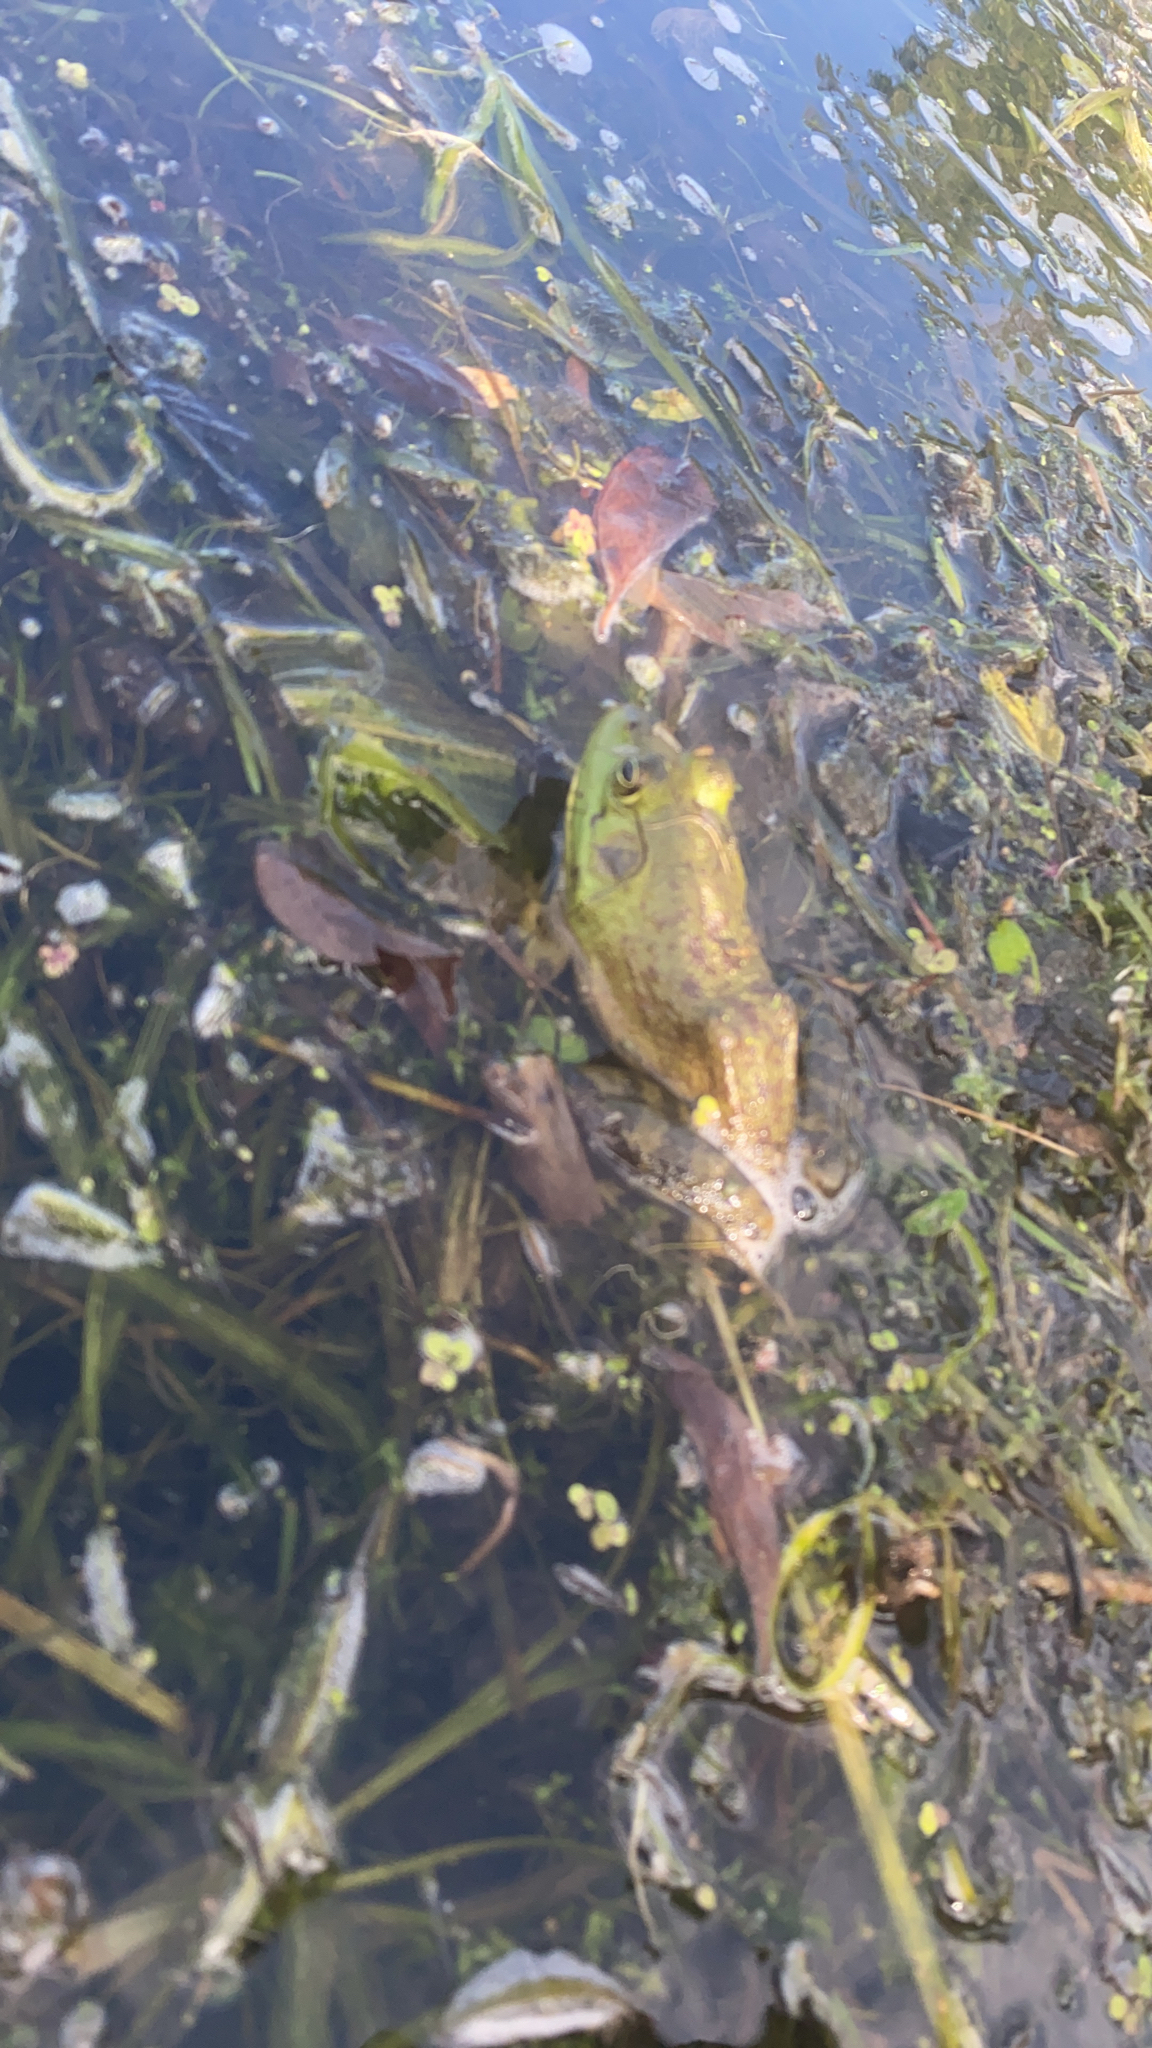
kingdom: Animalia
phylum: Chordata
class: Amphibia
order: Anura
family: Ranidae
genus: Lithobates
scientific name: Lithobates catesbeianus
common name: American bullfrog
